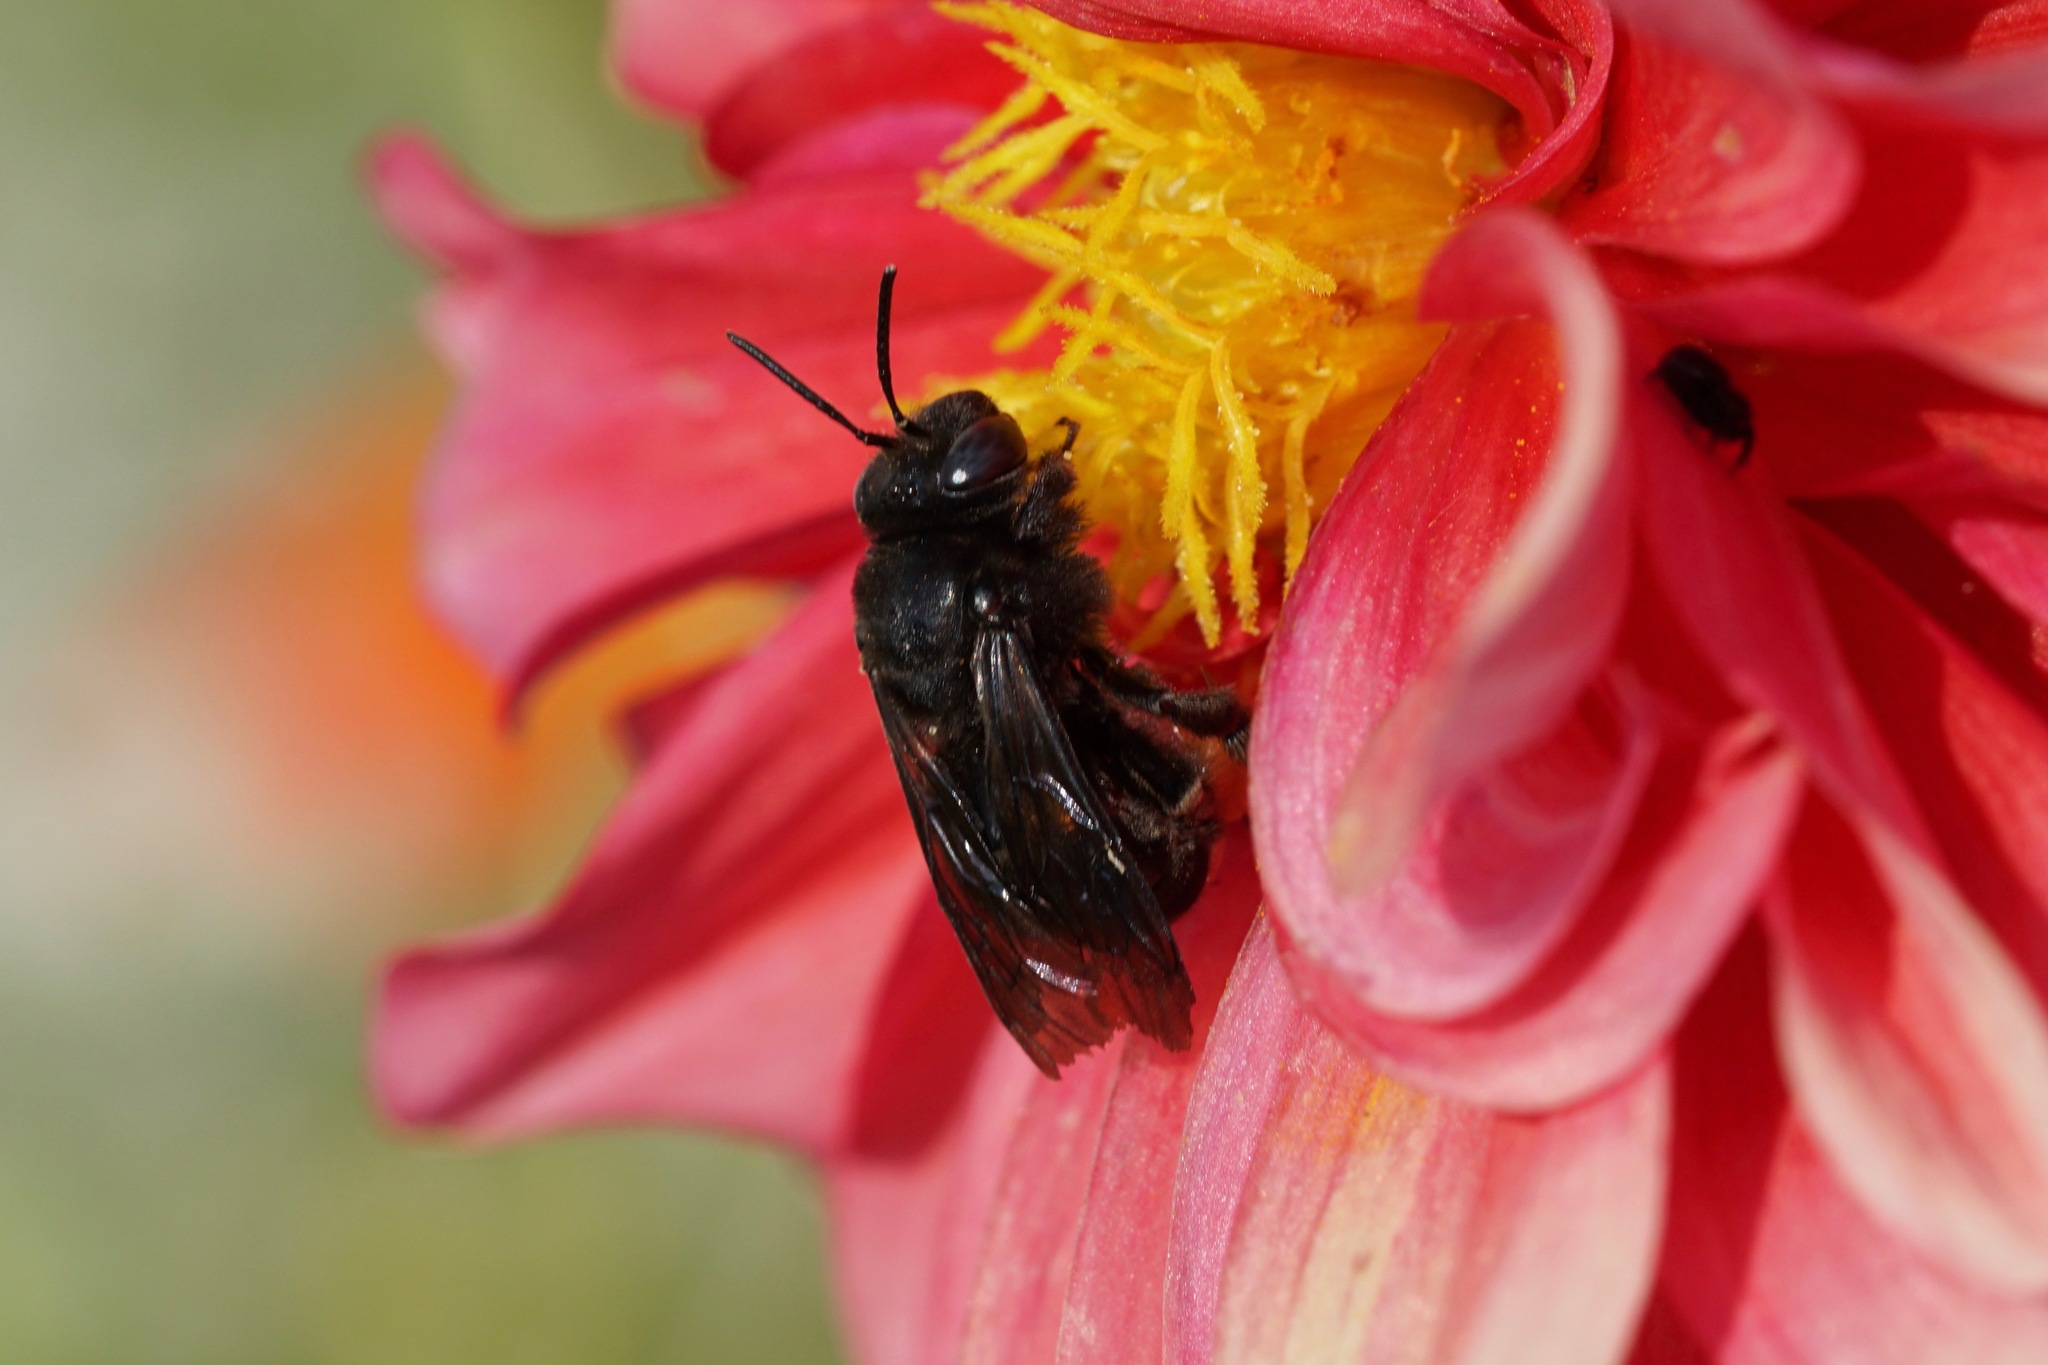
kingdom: Animalia
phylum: Arthropoda
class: Insecta
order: Hymenoptera
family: Apidae
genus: Melissodes
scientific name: Melissodes bimaculatus
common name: Two-spotted long-horned bee
